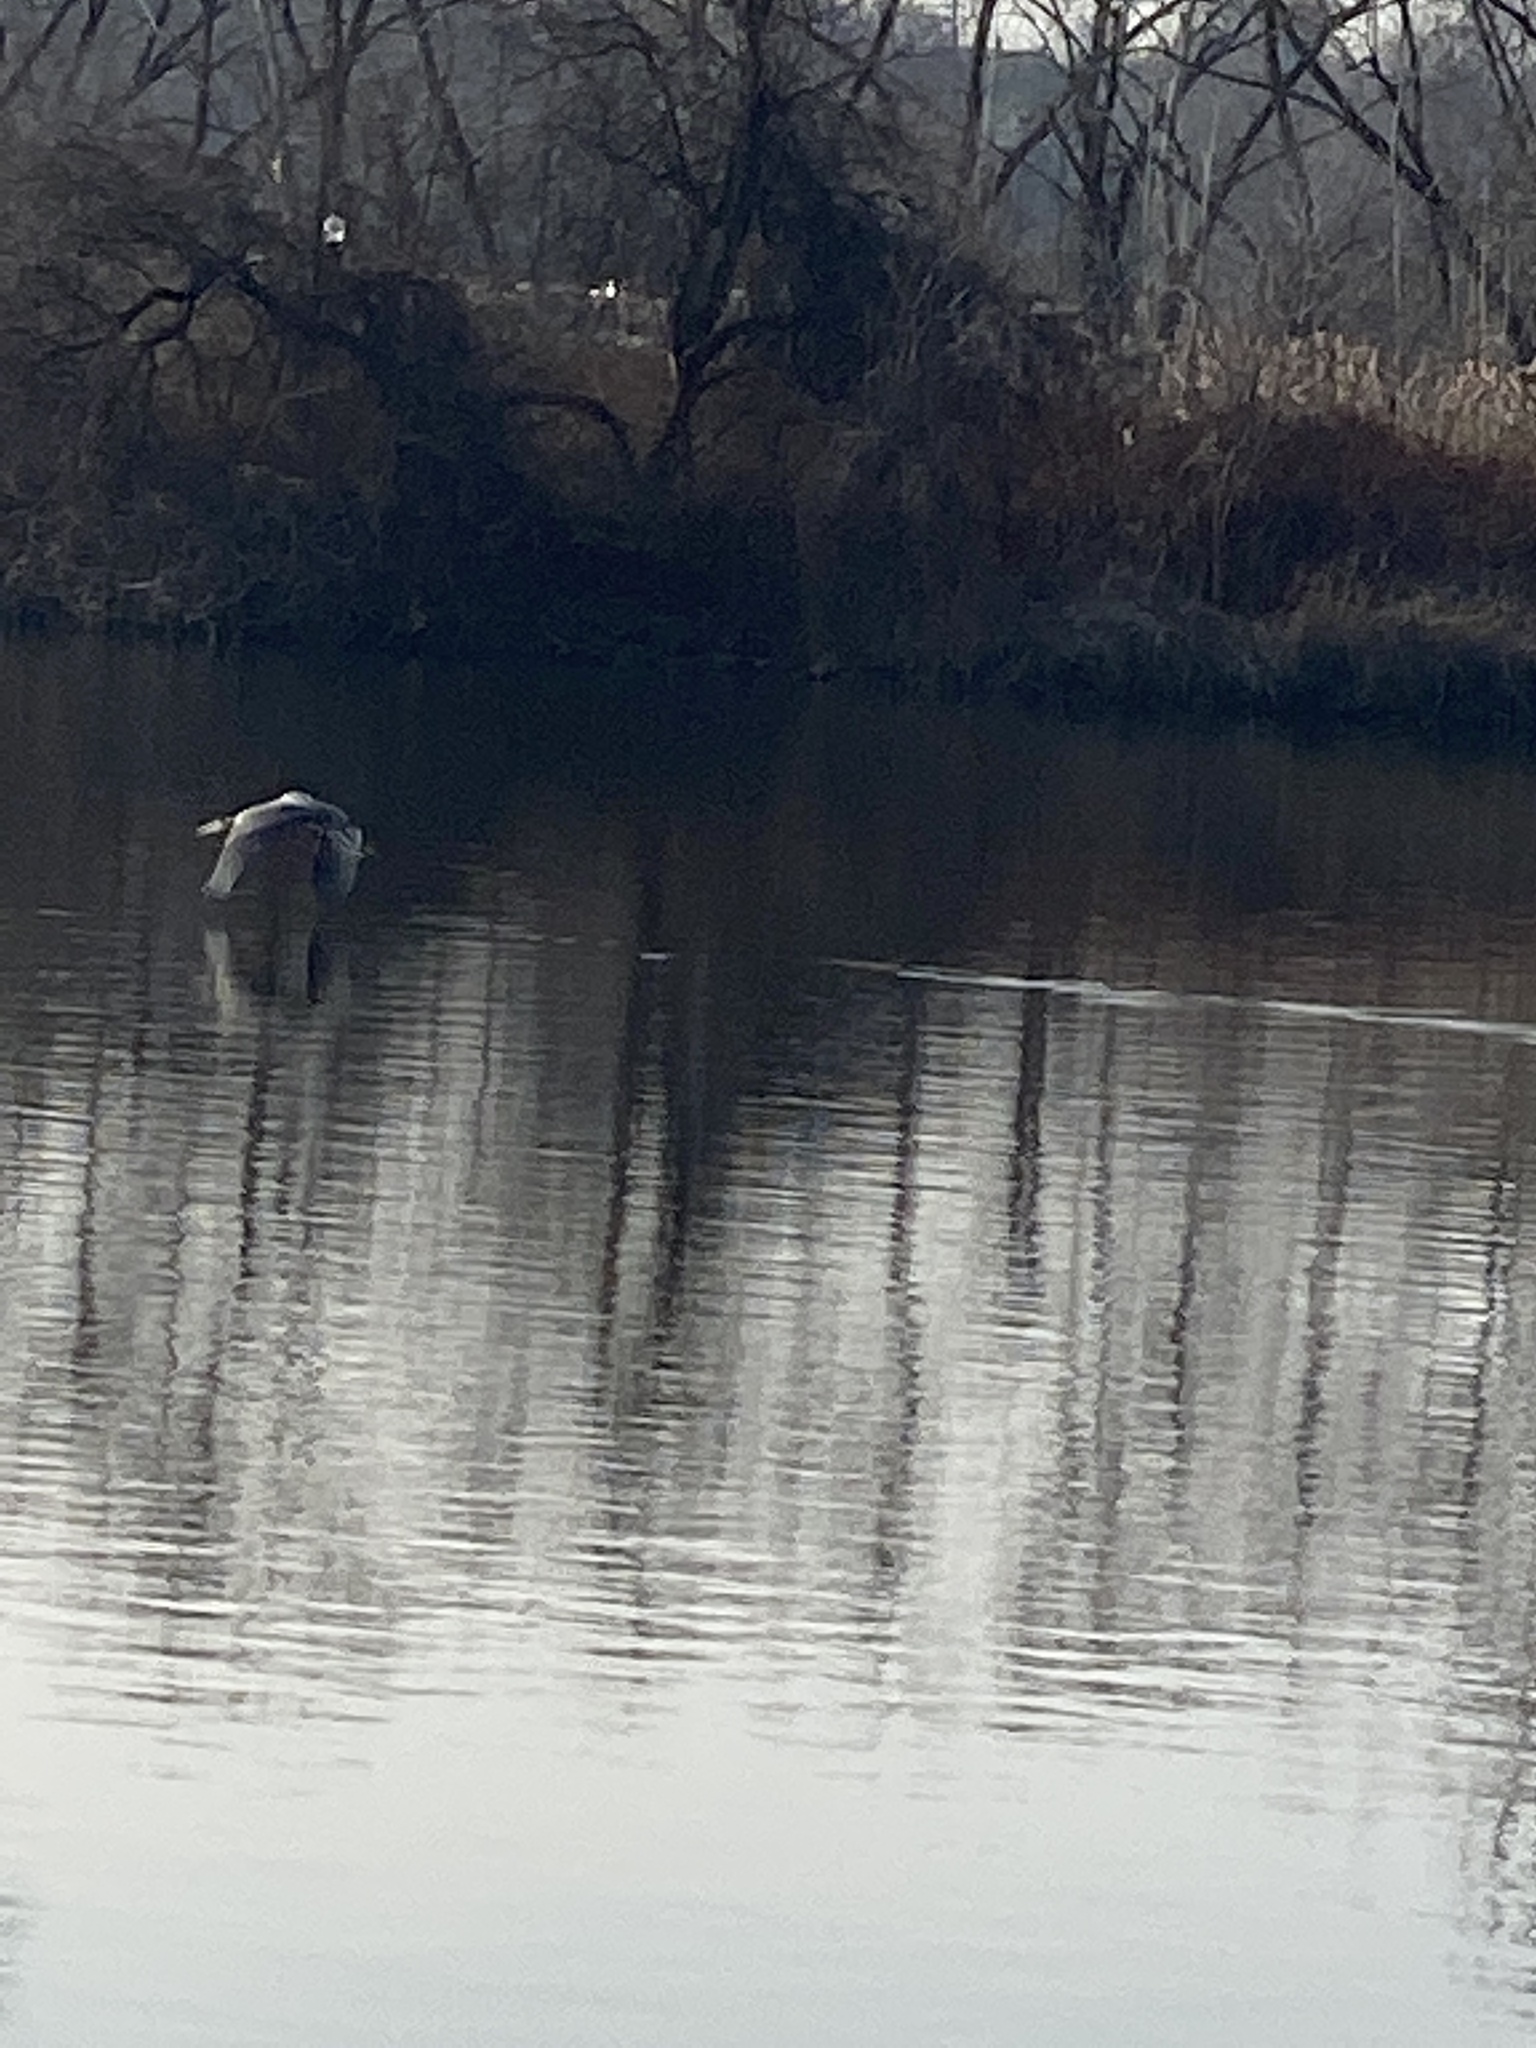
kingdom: Animalia
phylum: Chordata
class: Aves
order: Pelecaniformes
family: Ardeidae
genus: Ardea
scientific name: Ardea herodias
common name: Great blue heron
